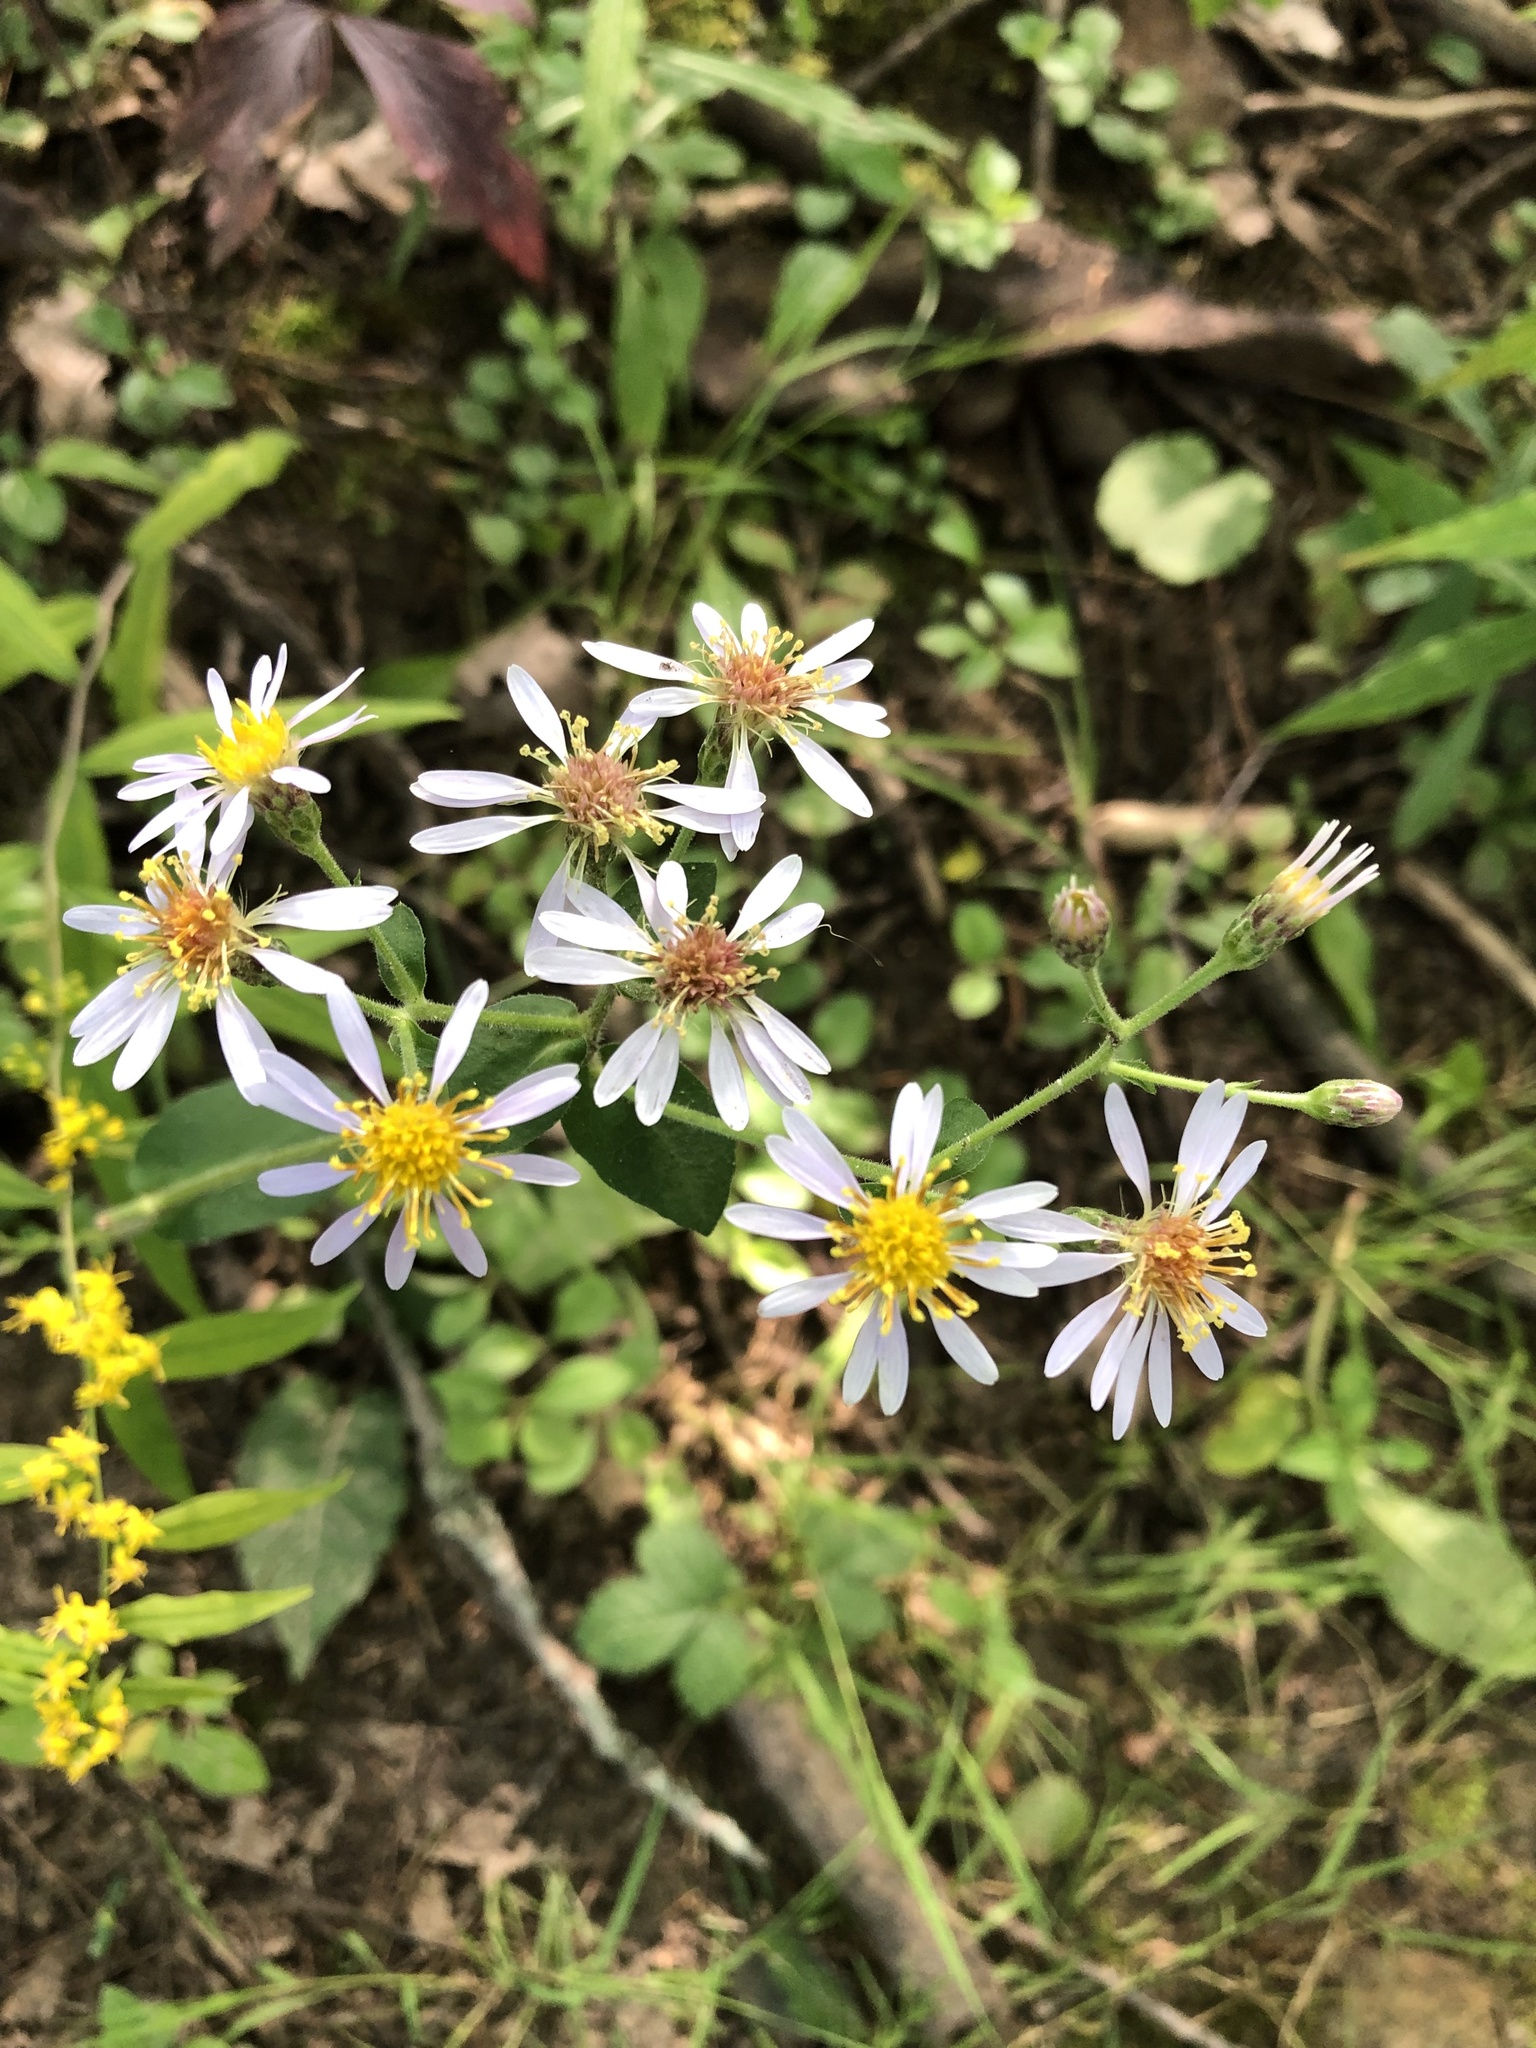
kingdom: Plantae
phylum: Tracheophyta
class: Magnoliopsida
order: Asterales
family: Asteraceae
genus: Eurybia
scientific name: Eurybia macrophylla
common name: Big-leaved aster
